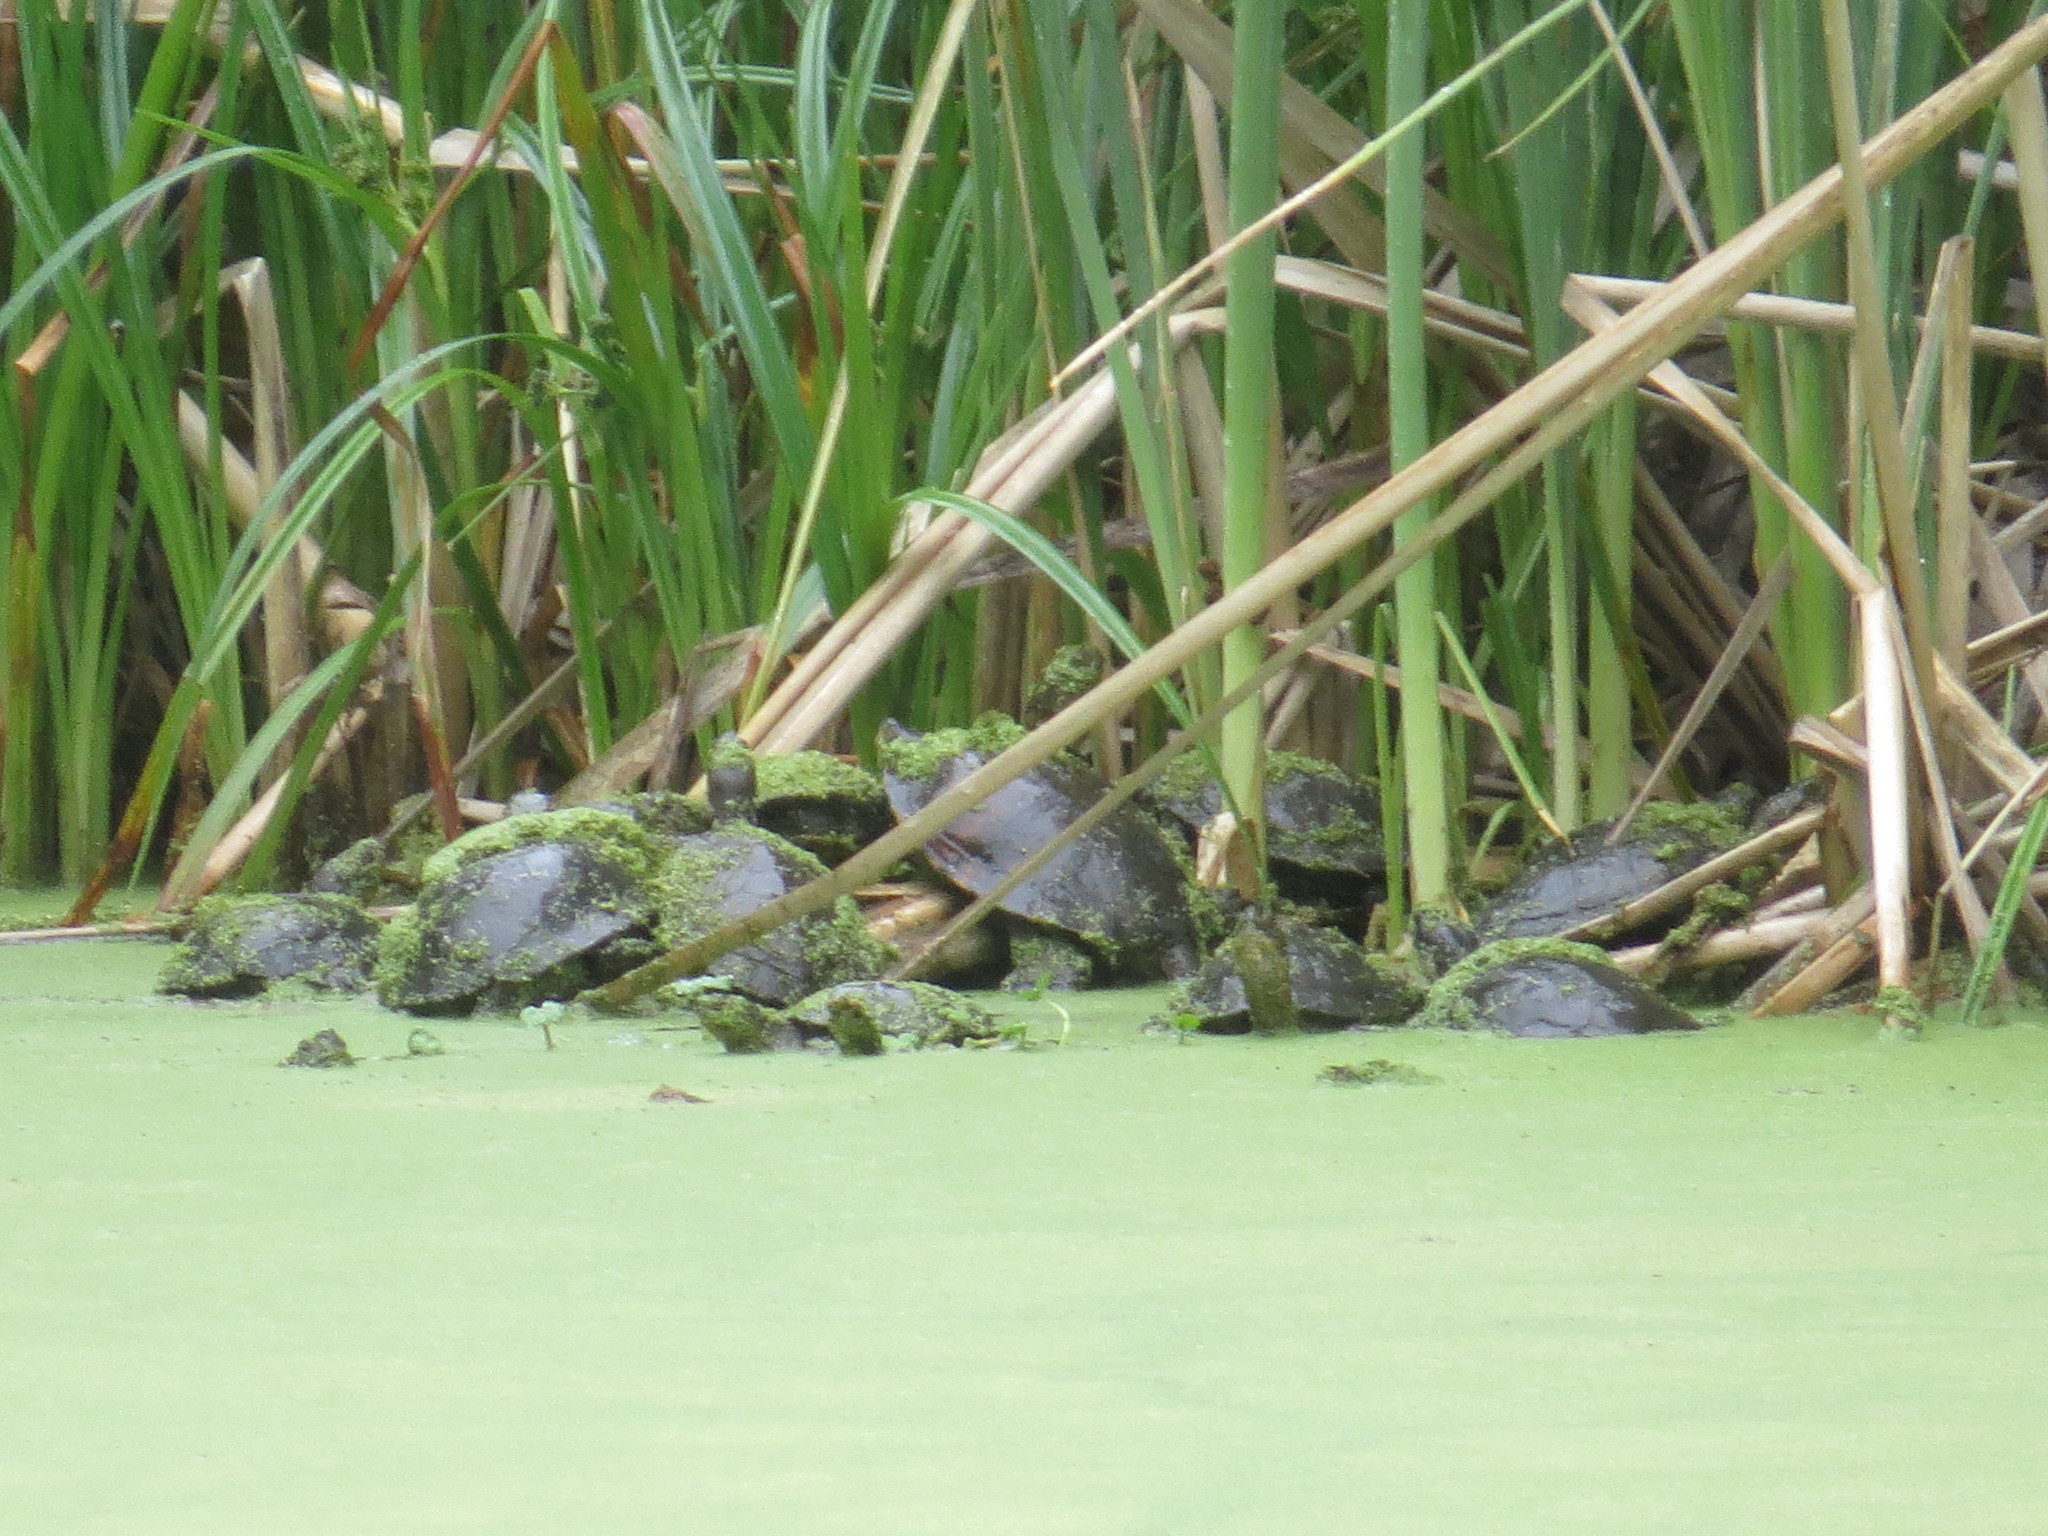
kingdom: Animalia
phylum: Chordata
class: Testudines
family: Emydidae
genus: Actinemys
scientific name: Actinemys marmorata
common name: Western pond turtle
